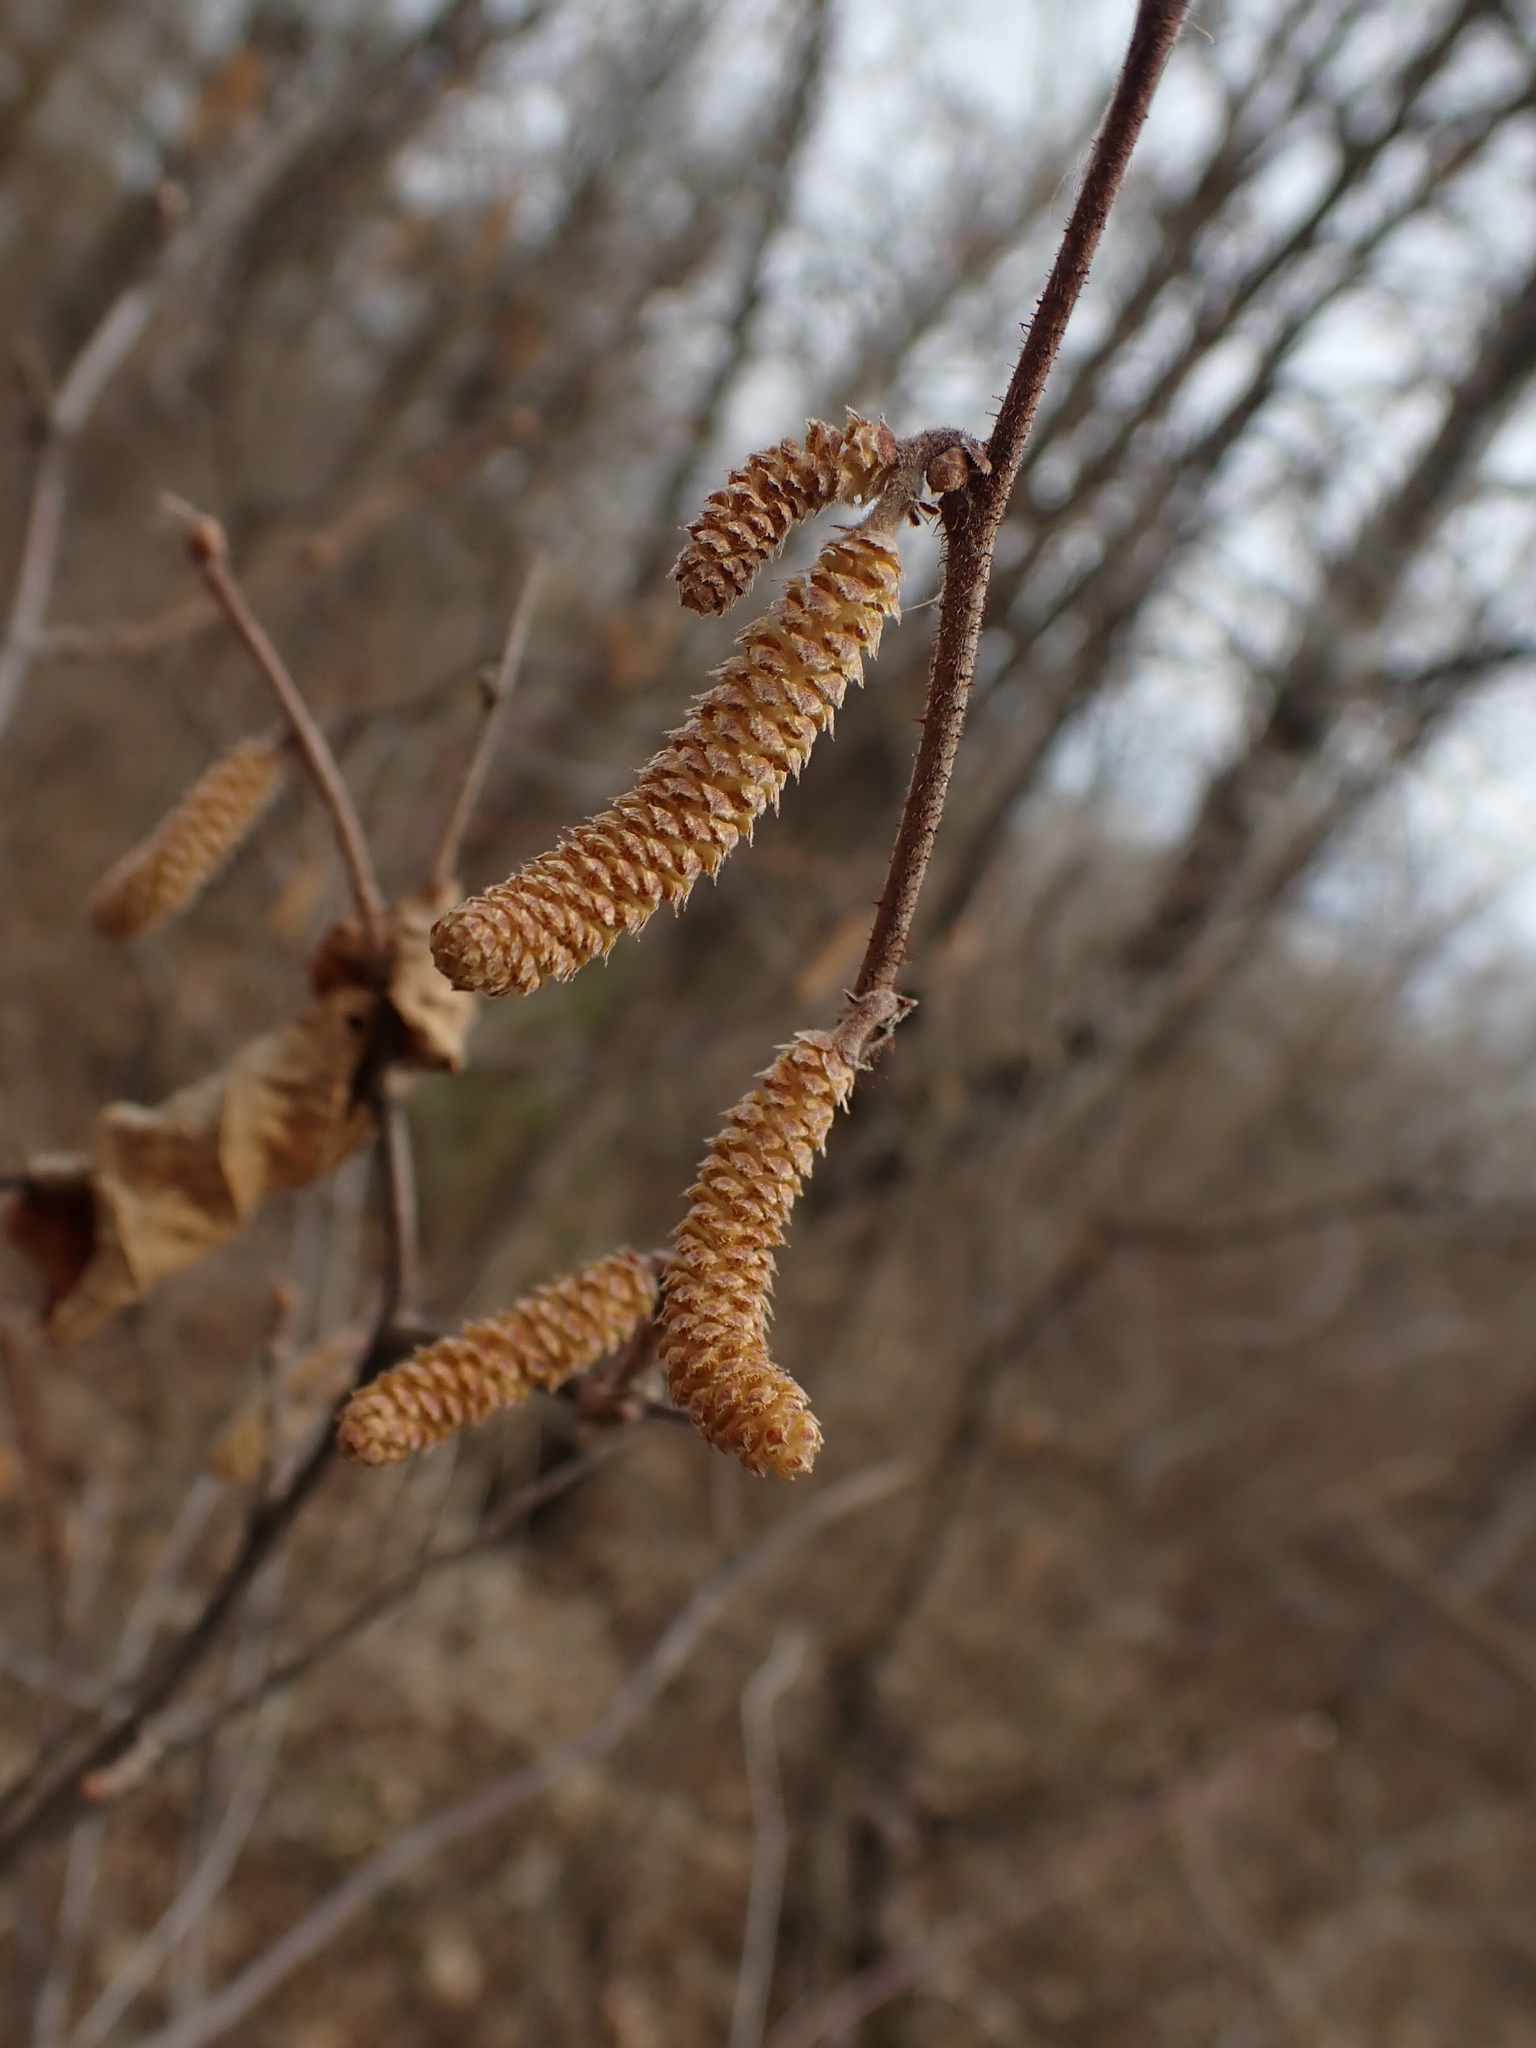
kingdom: Plantae
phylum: Tracheophyta
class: Magnoliopsida
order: Fagales
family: Betulaceae
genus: Corylus
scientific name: Corylus americana
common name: American hazel
